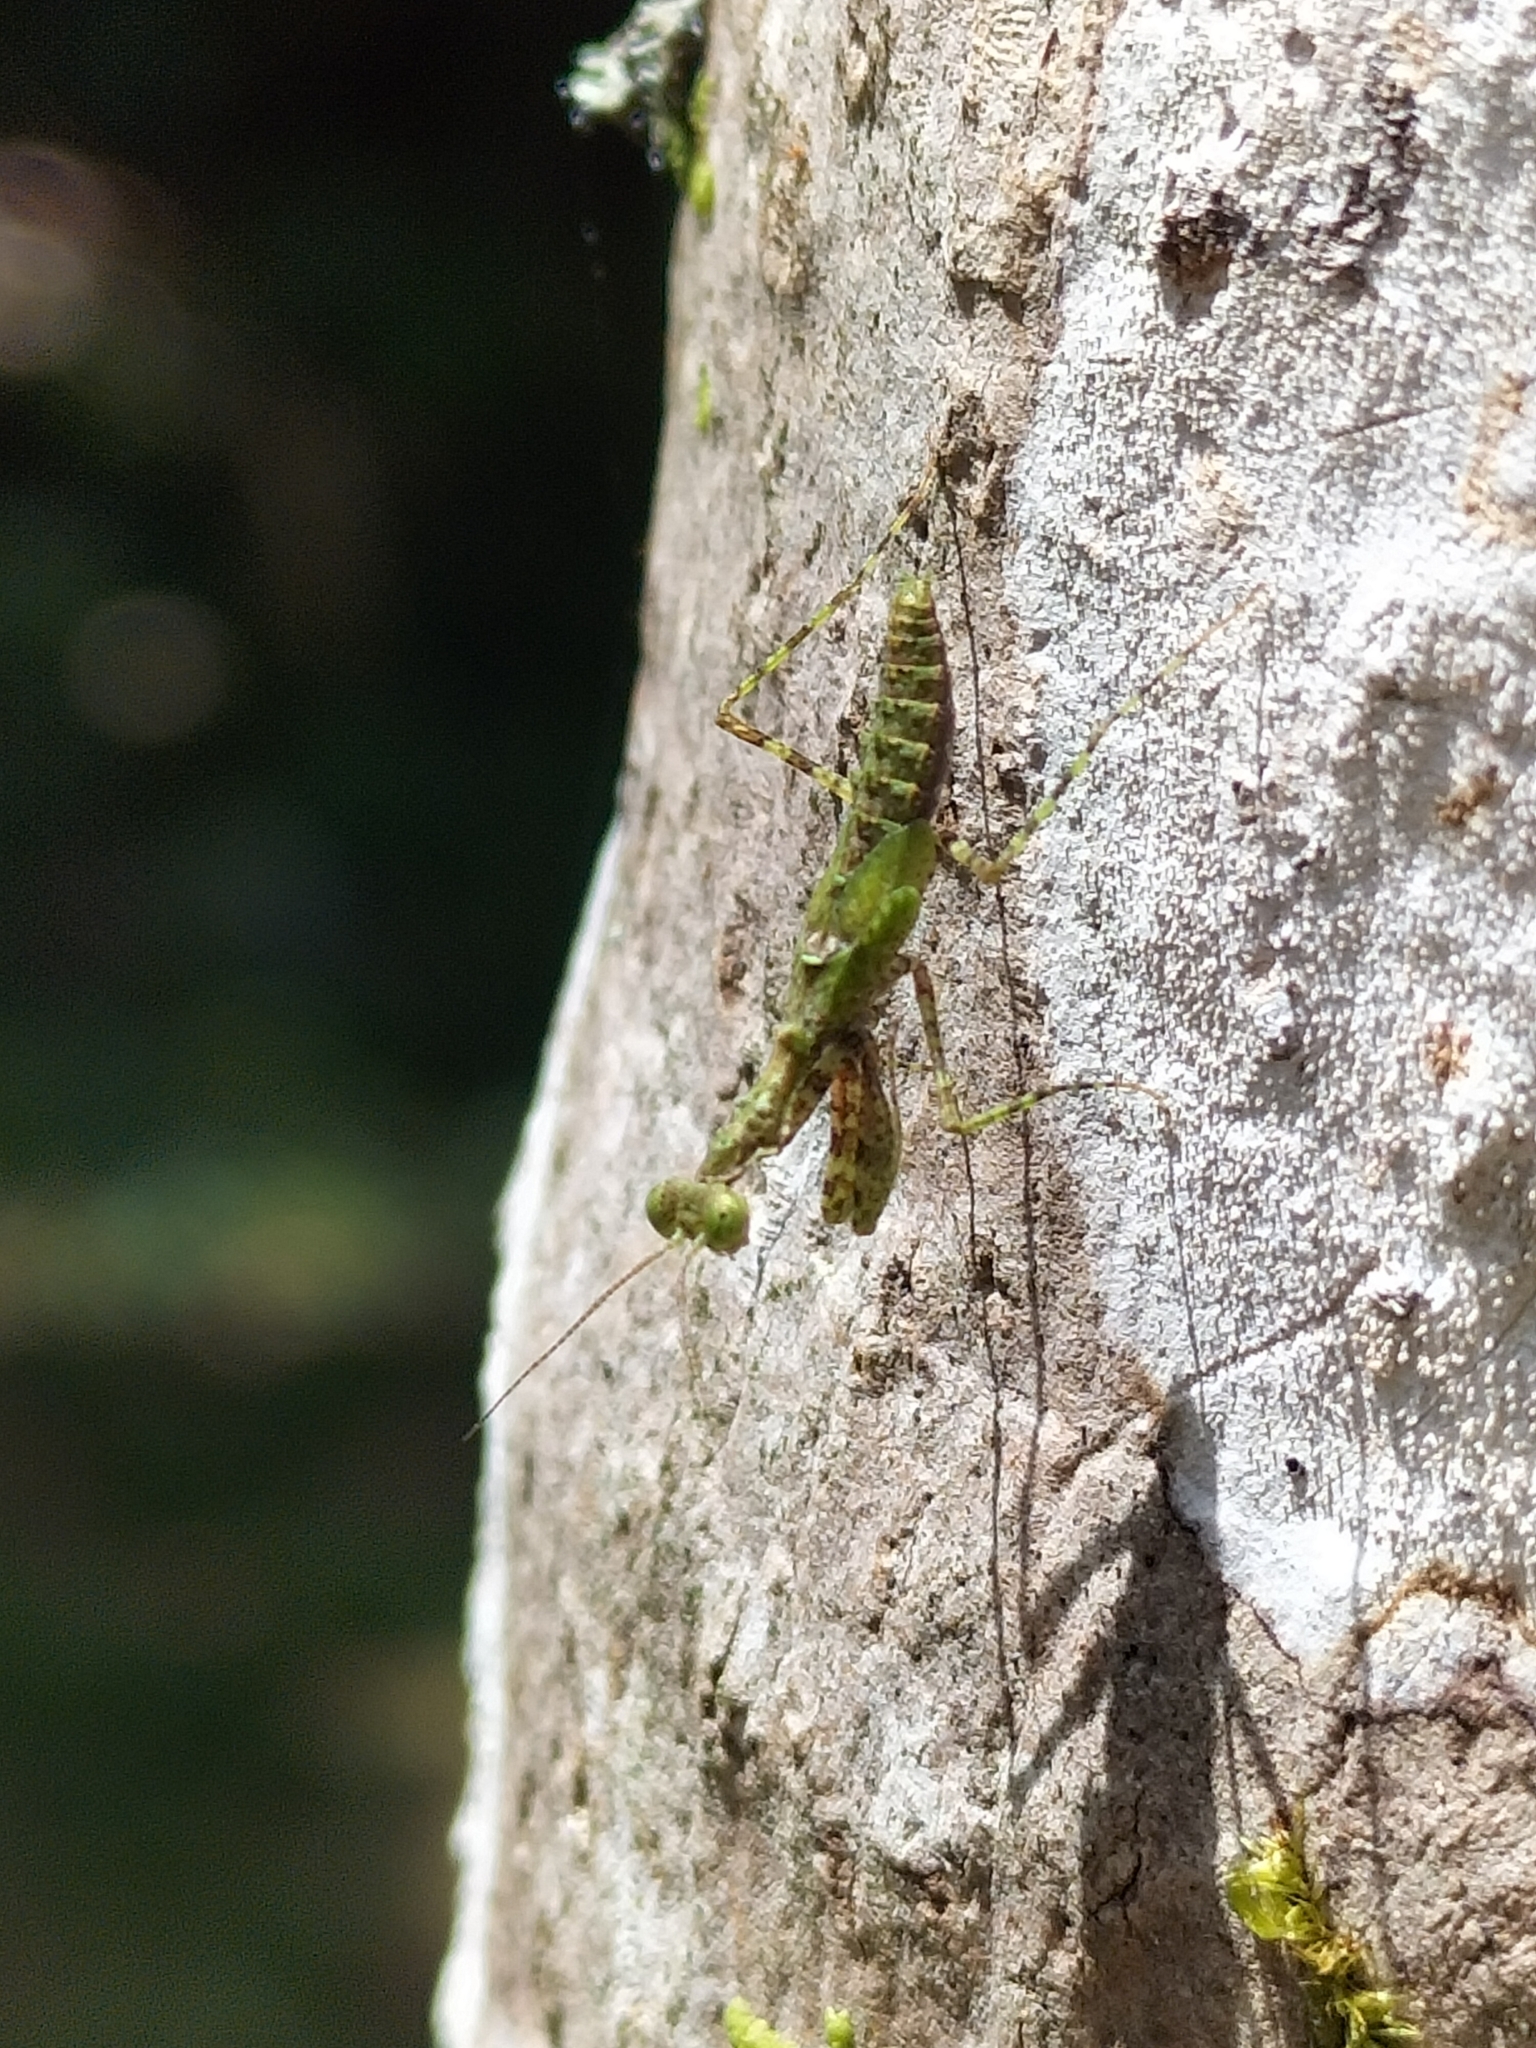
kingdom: Animalia
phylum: Arthropoda
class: Insecta
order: Mantodea
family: Nanomantidae
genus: Calofulcinia
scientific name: Calofulcinia oxynota
